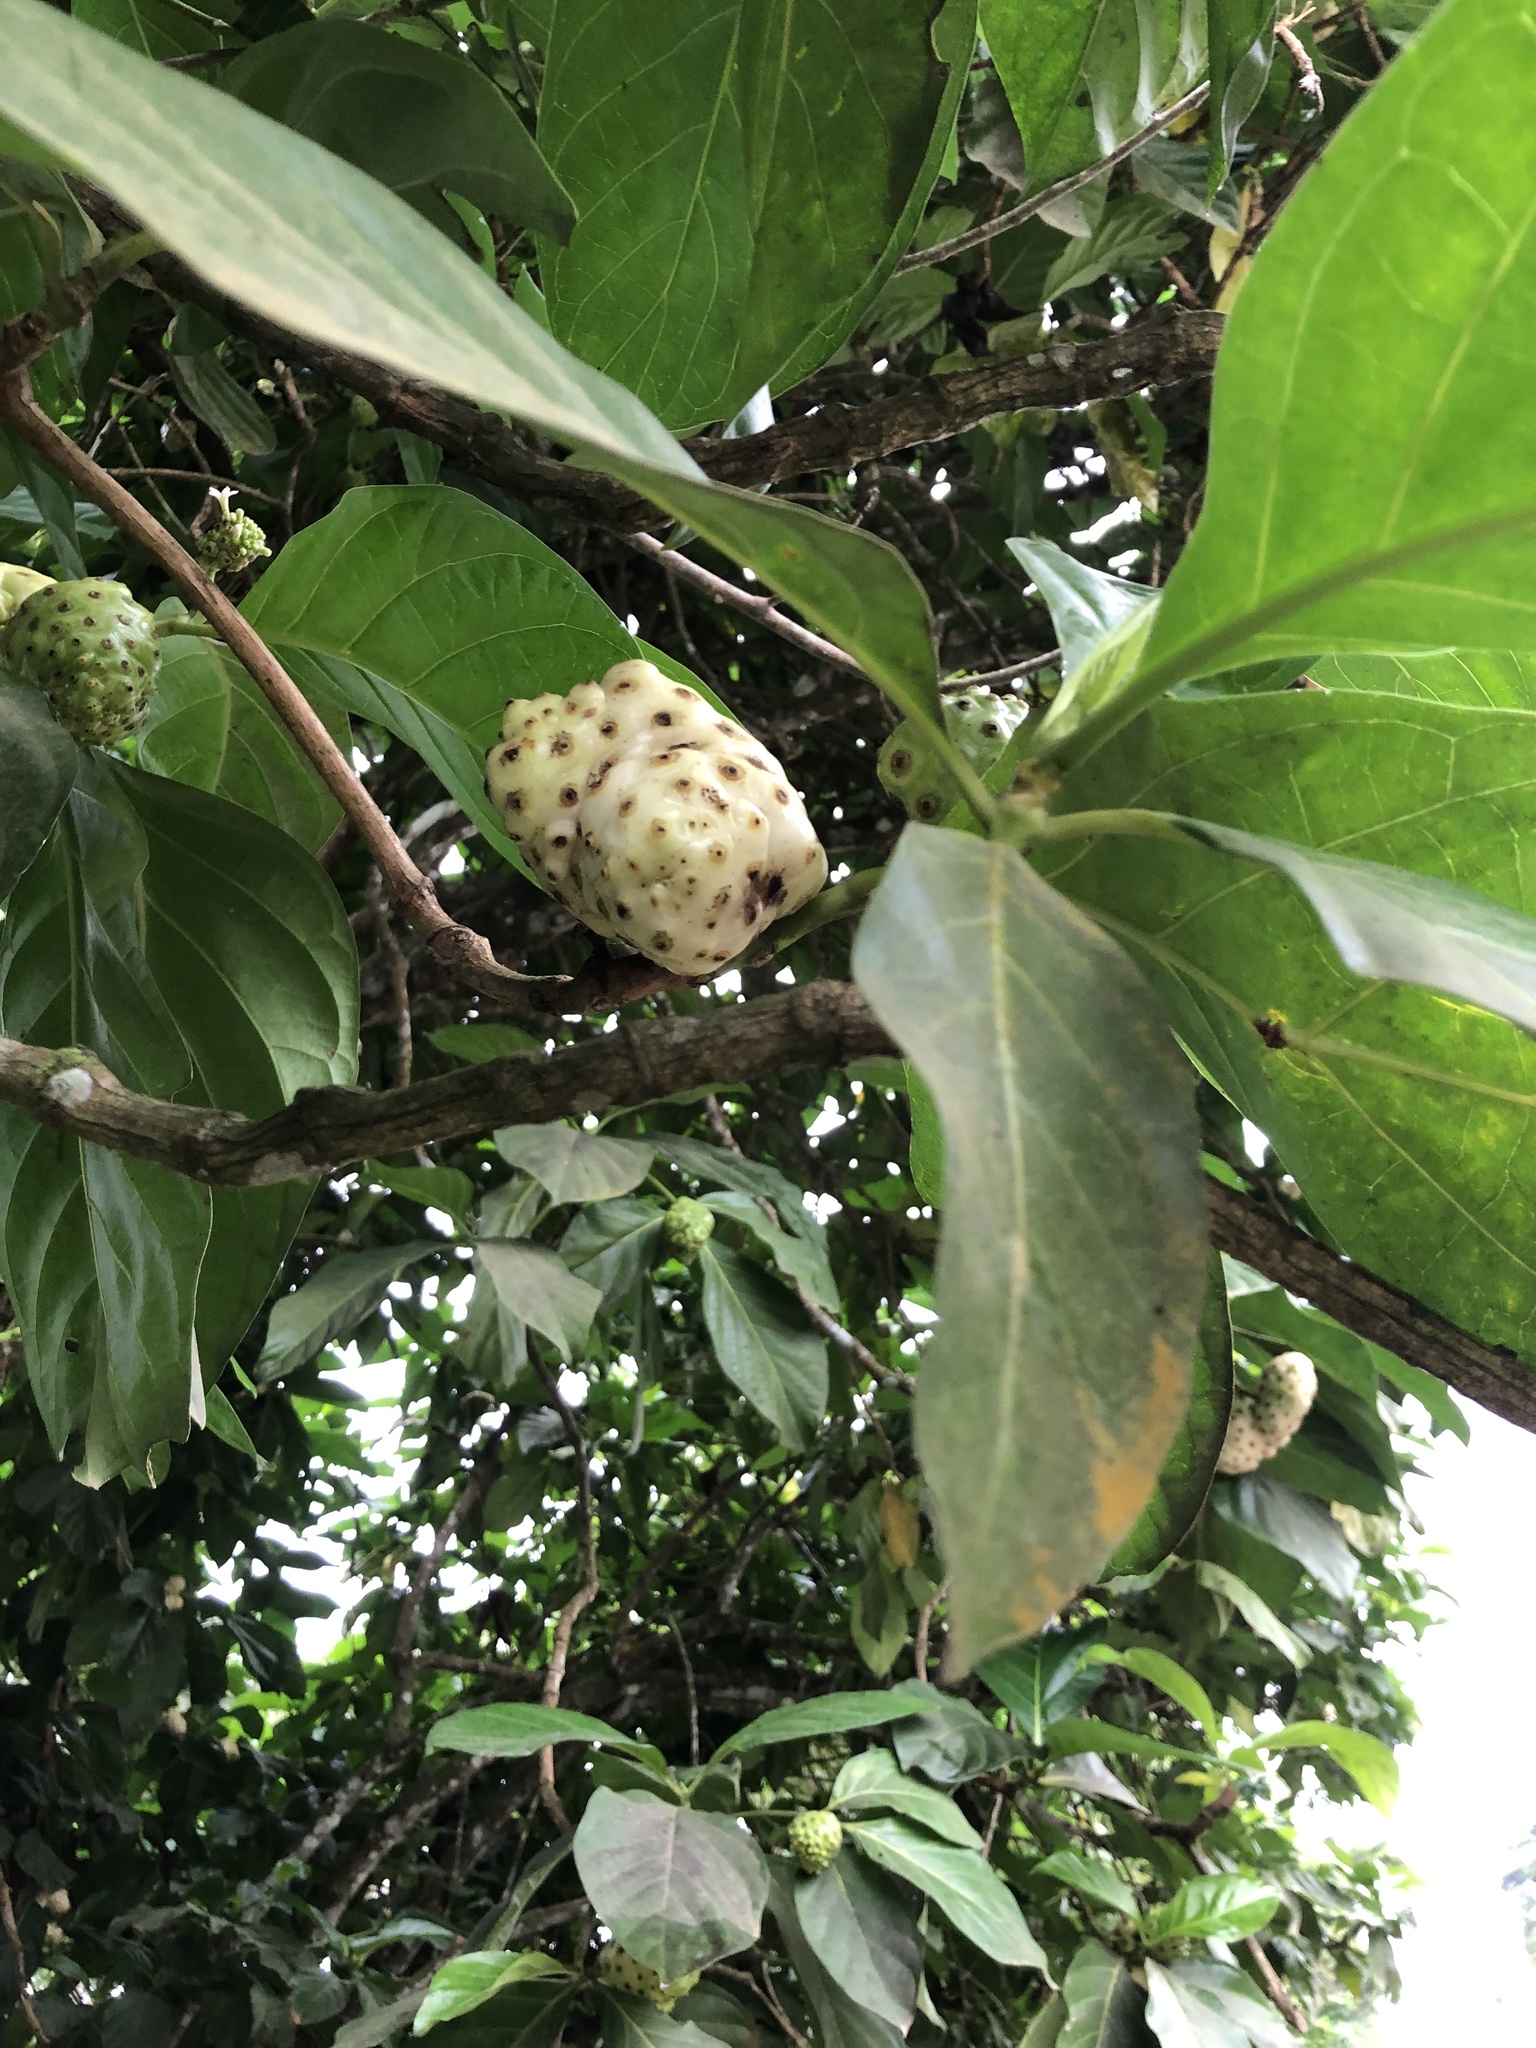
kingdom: Plantae
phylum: Tracheophyta
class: Magnoliopsida
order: Gentianales
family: Rubiaceae
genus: Morinda
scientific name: Morinda citrifolia
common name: Indian-mulberry
